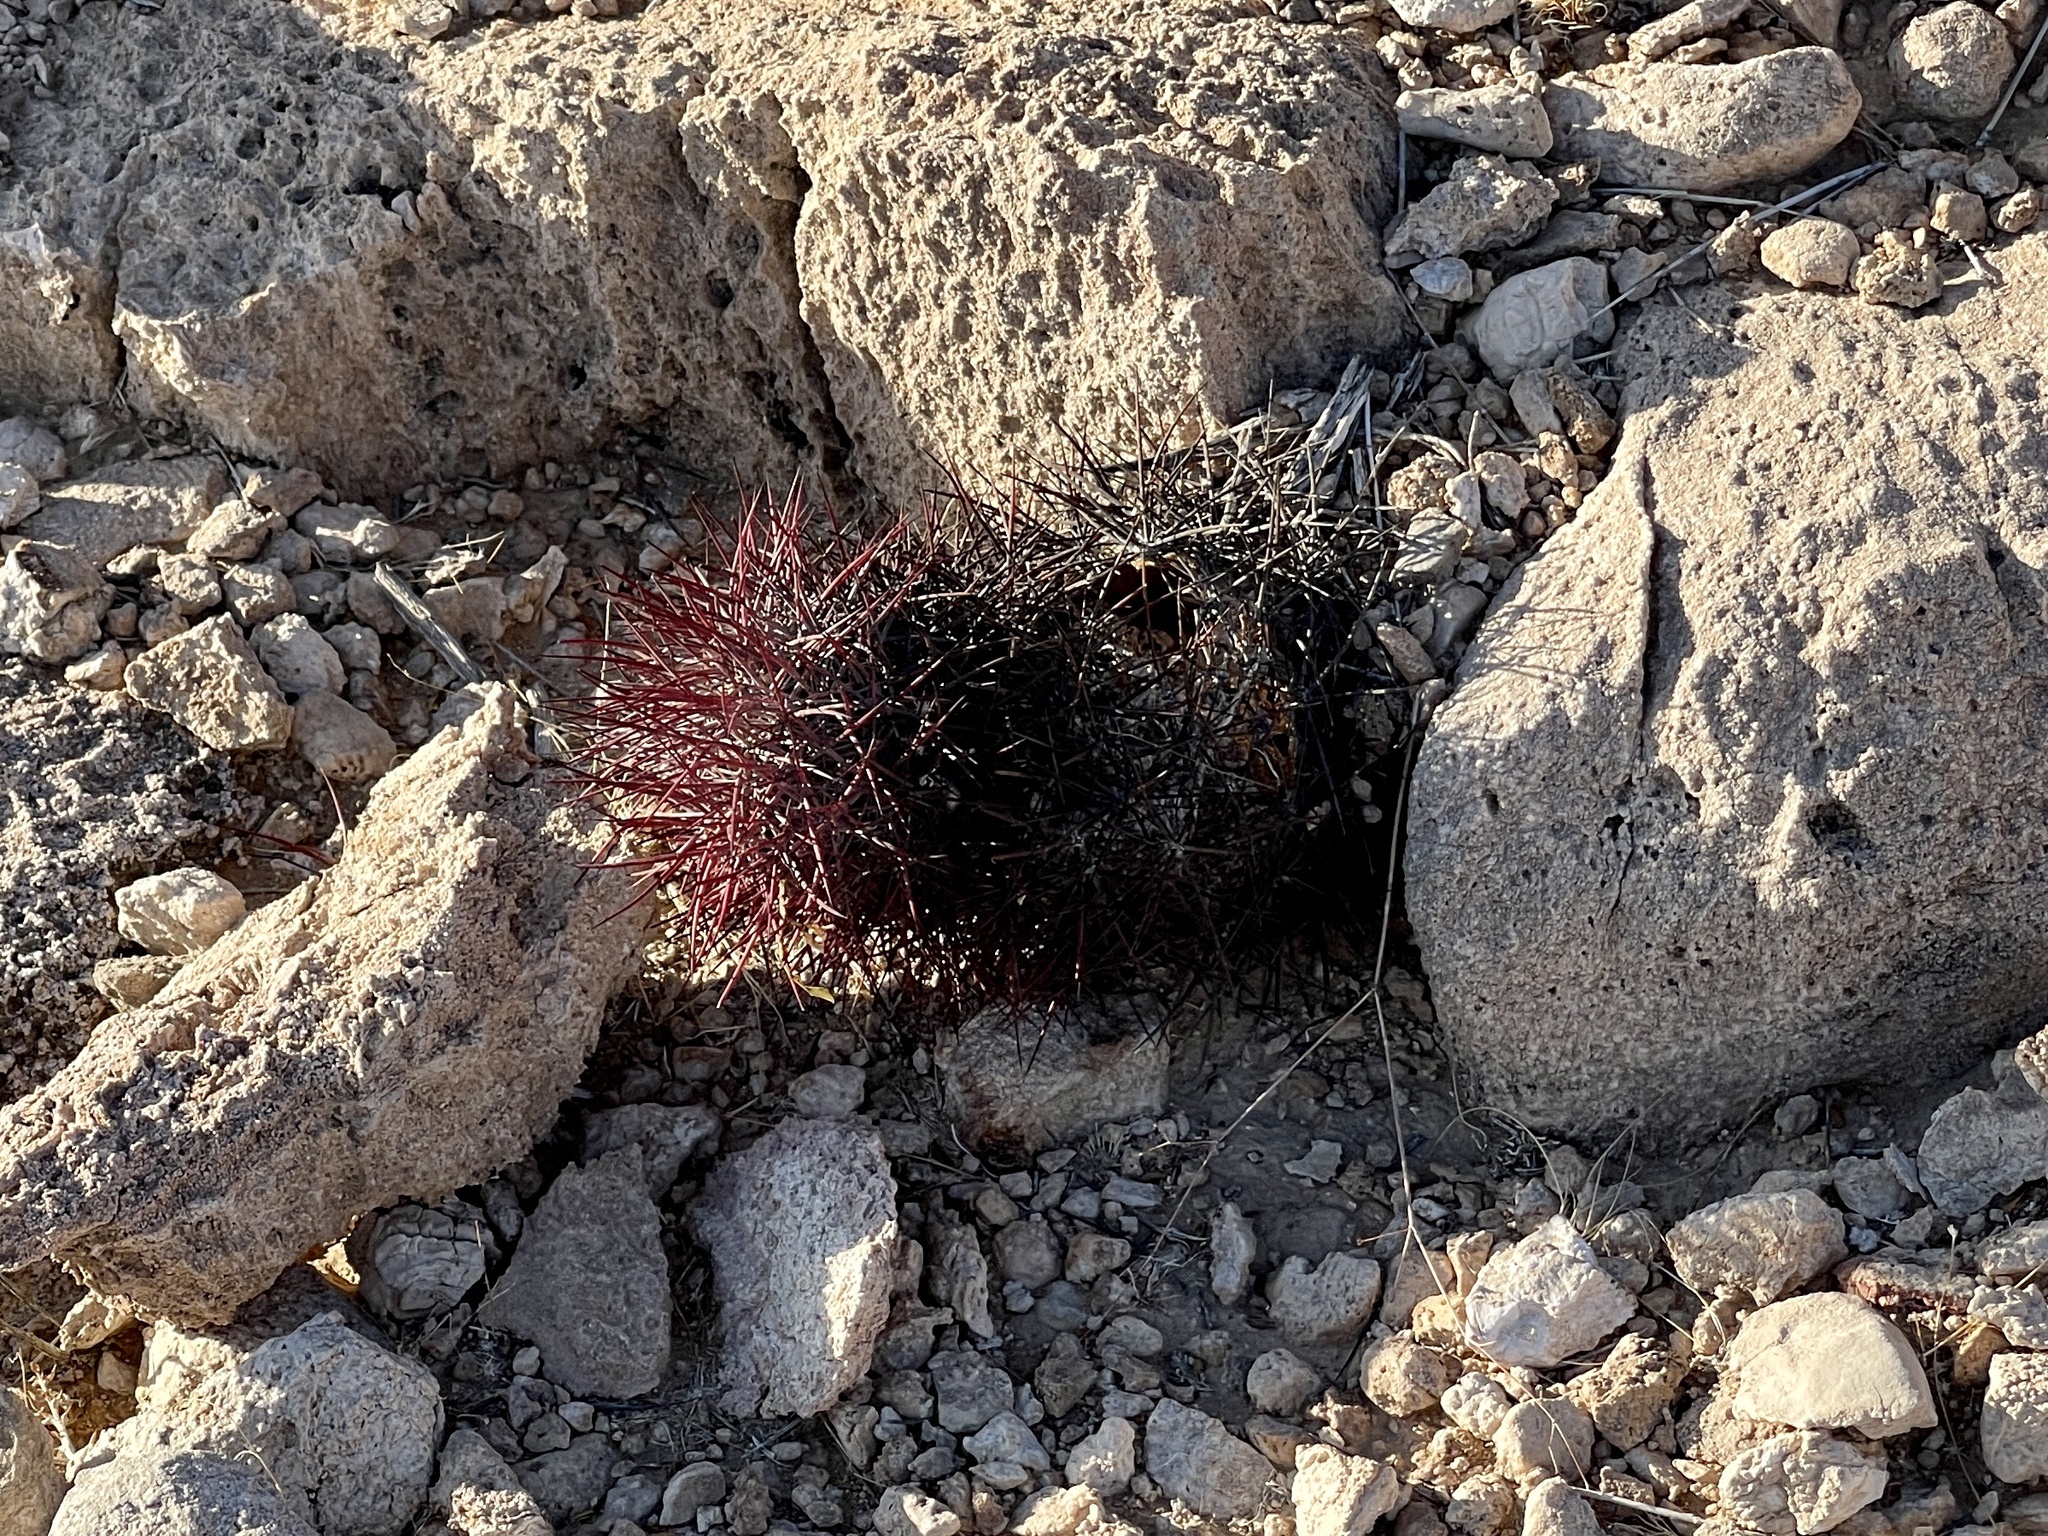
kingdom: Plantae
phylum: Tracheophyta
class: Magnoliopsida
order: Caryophyllales
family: Cactaceae
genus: Sclerocactus
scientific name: Sclerocactus johnsonii
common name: Eight-spine fishhook cactus
